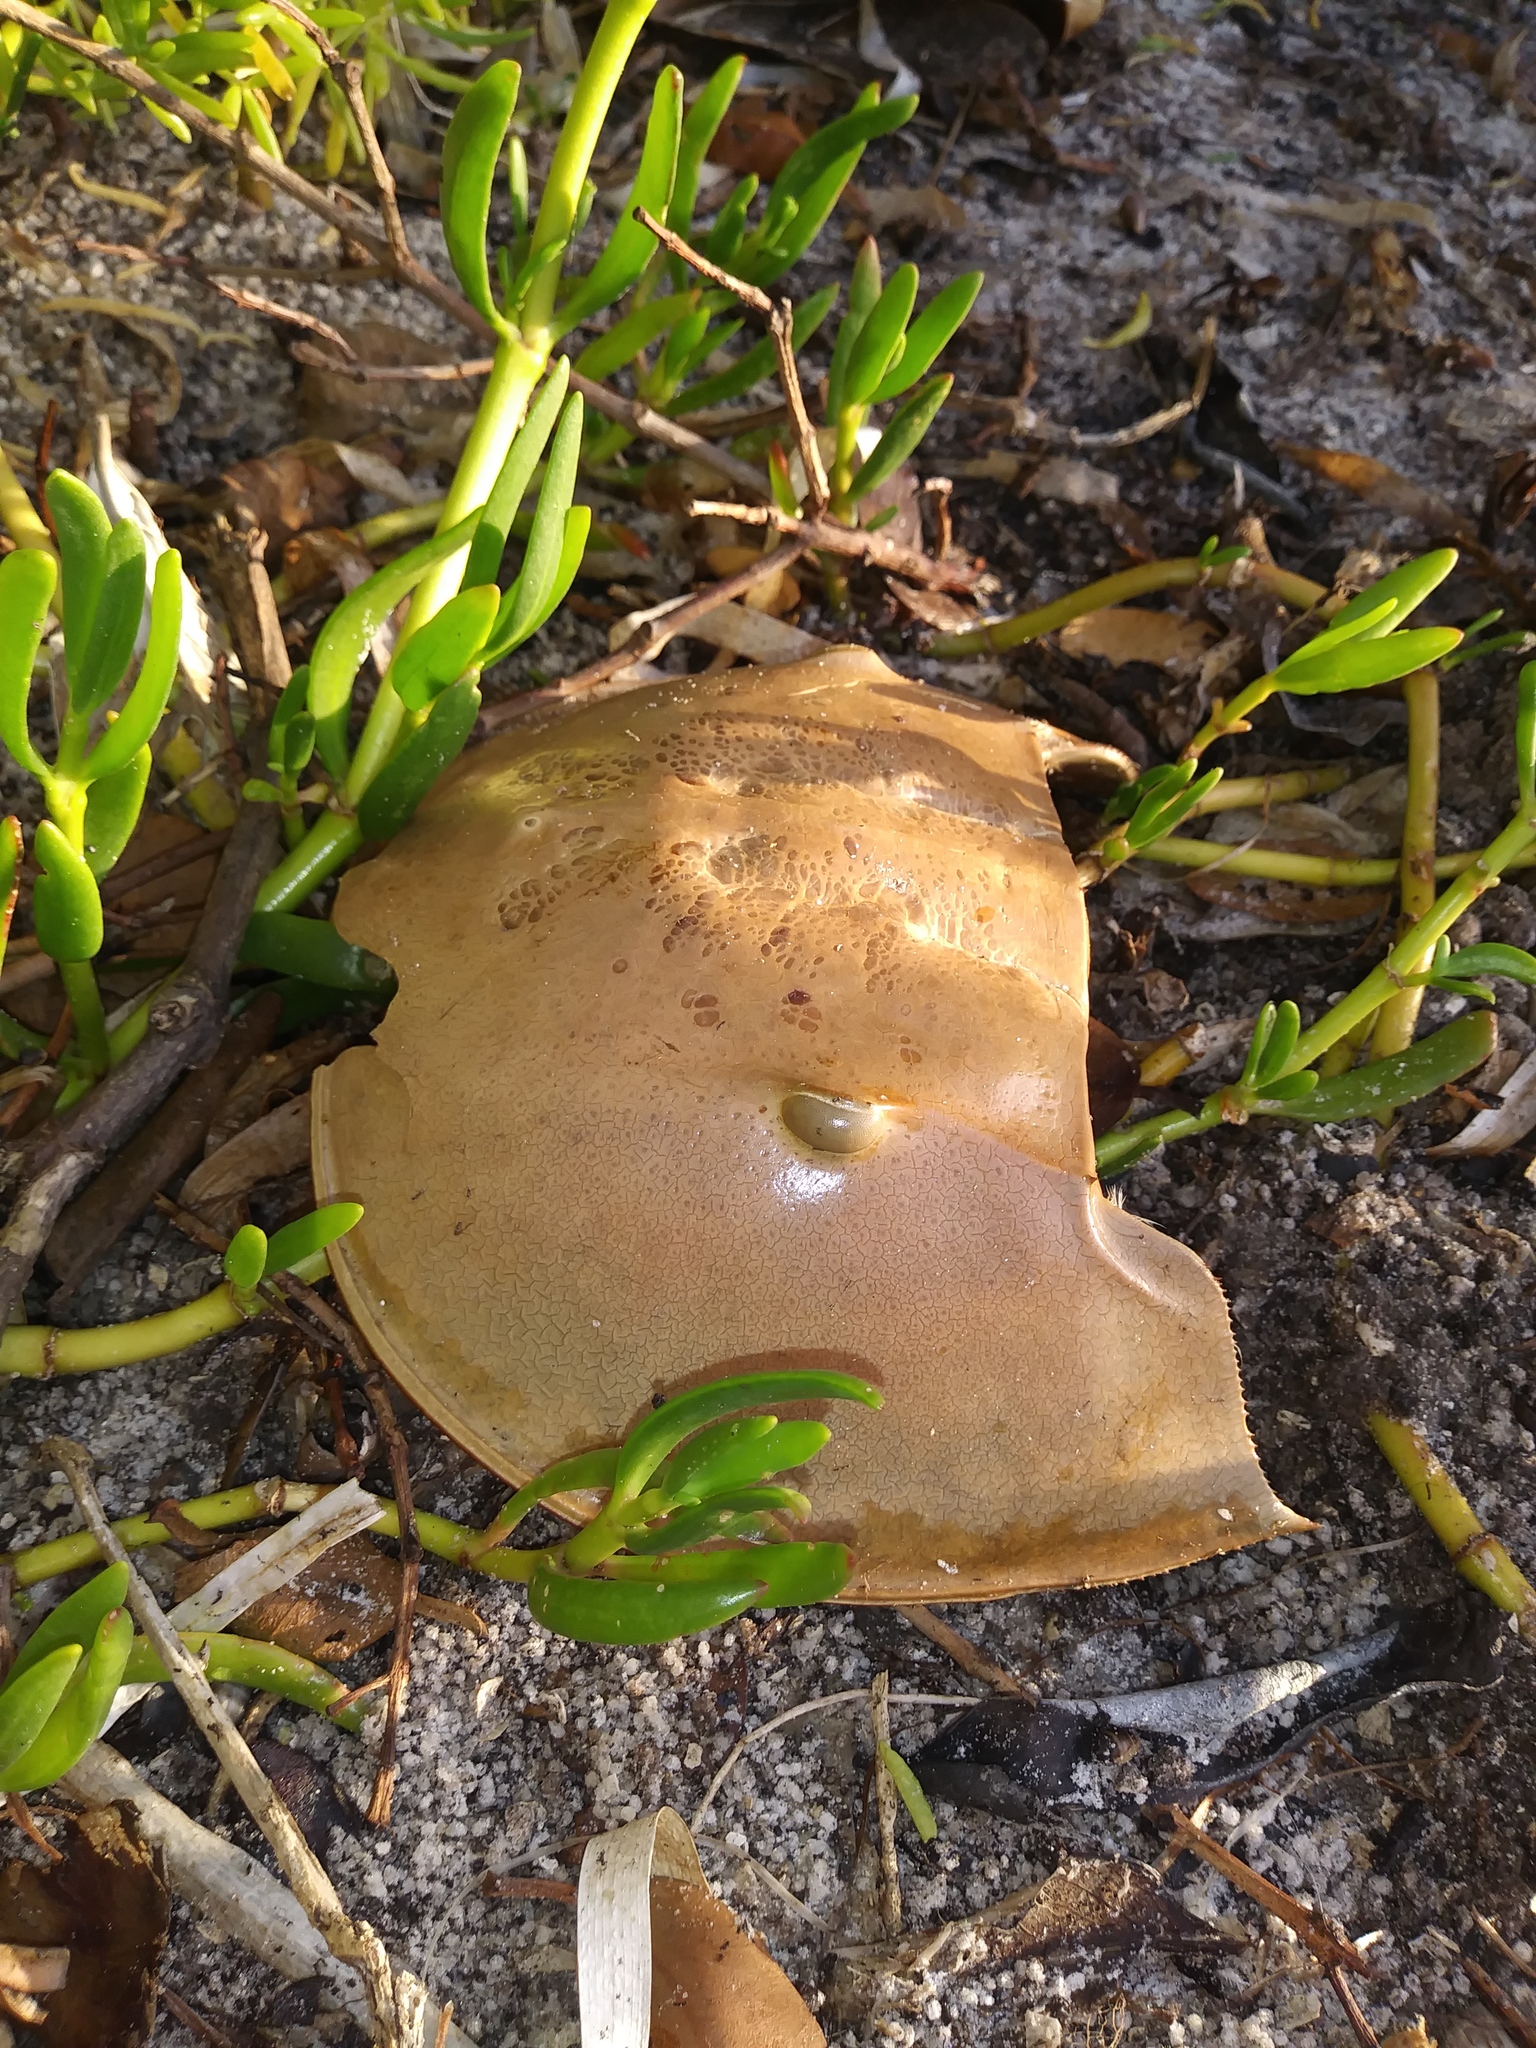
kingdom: Animalia
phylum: Arthropoda
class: Merostomata
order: Xiphosurida
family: Limulidae
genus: Limulus
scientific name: Limulus polyphemus
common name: Horseshoe crab
